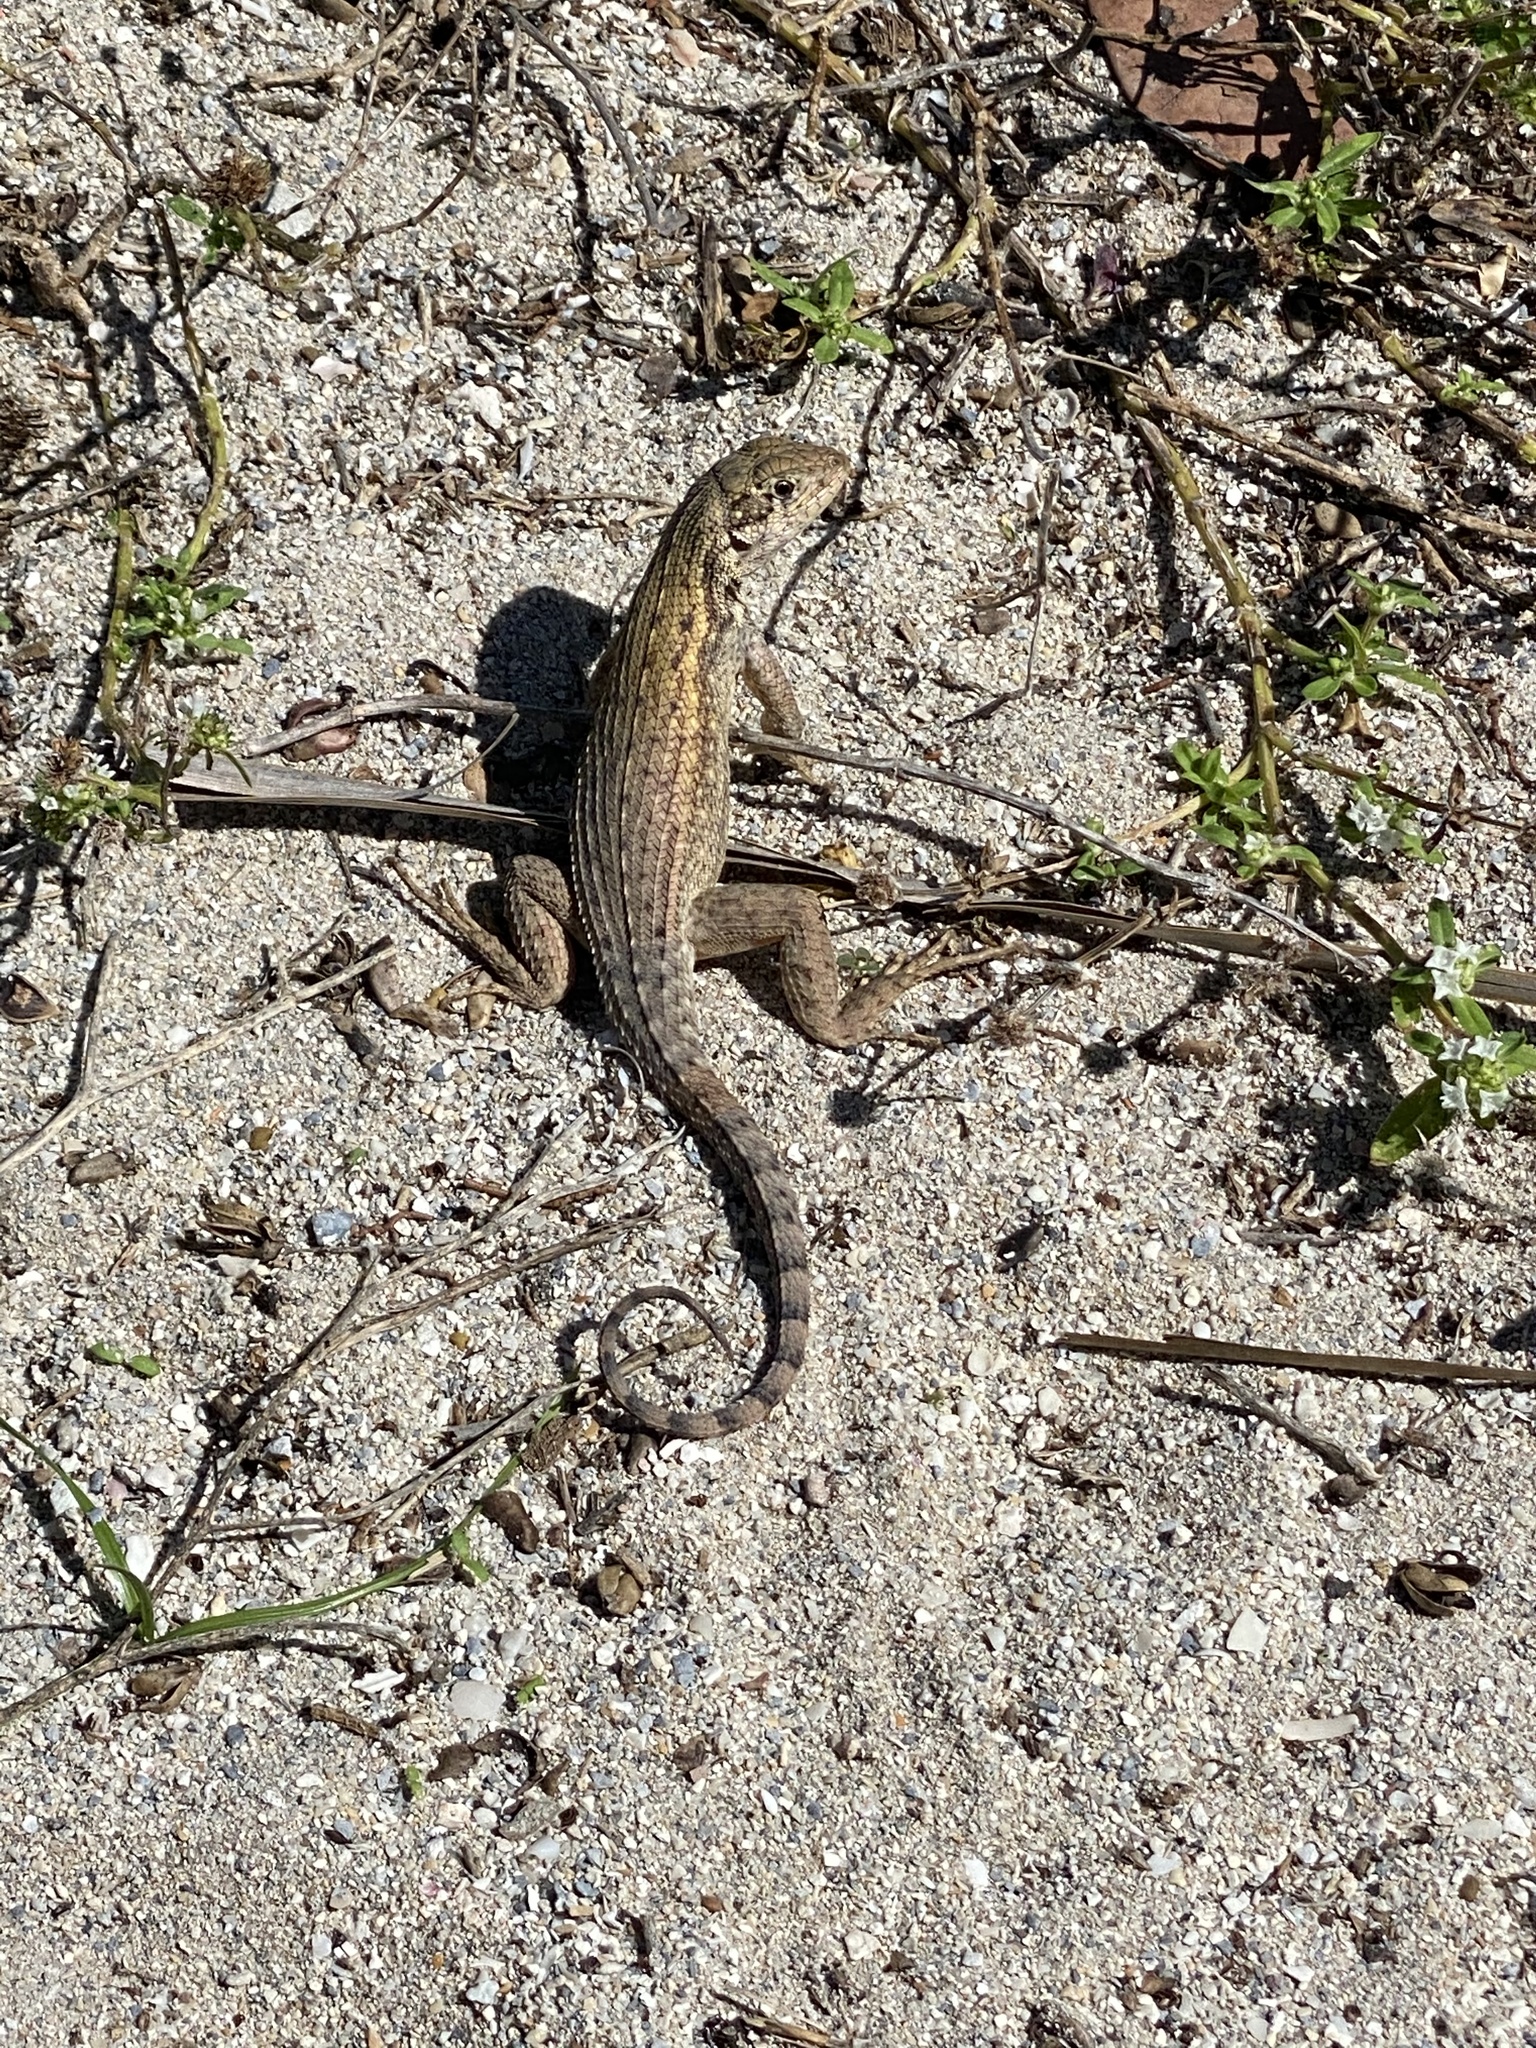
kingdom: Animalia
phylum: Chordata
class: Squamata
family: Leiocephalidae
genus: Leiocephalus
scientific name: Leiocephalus carinatus
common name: Northern curly-tailed lizard
